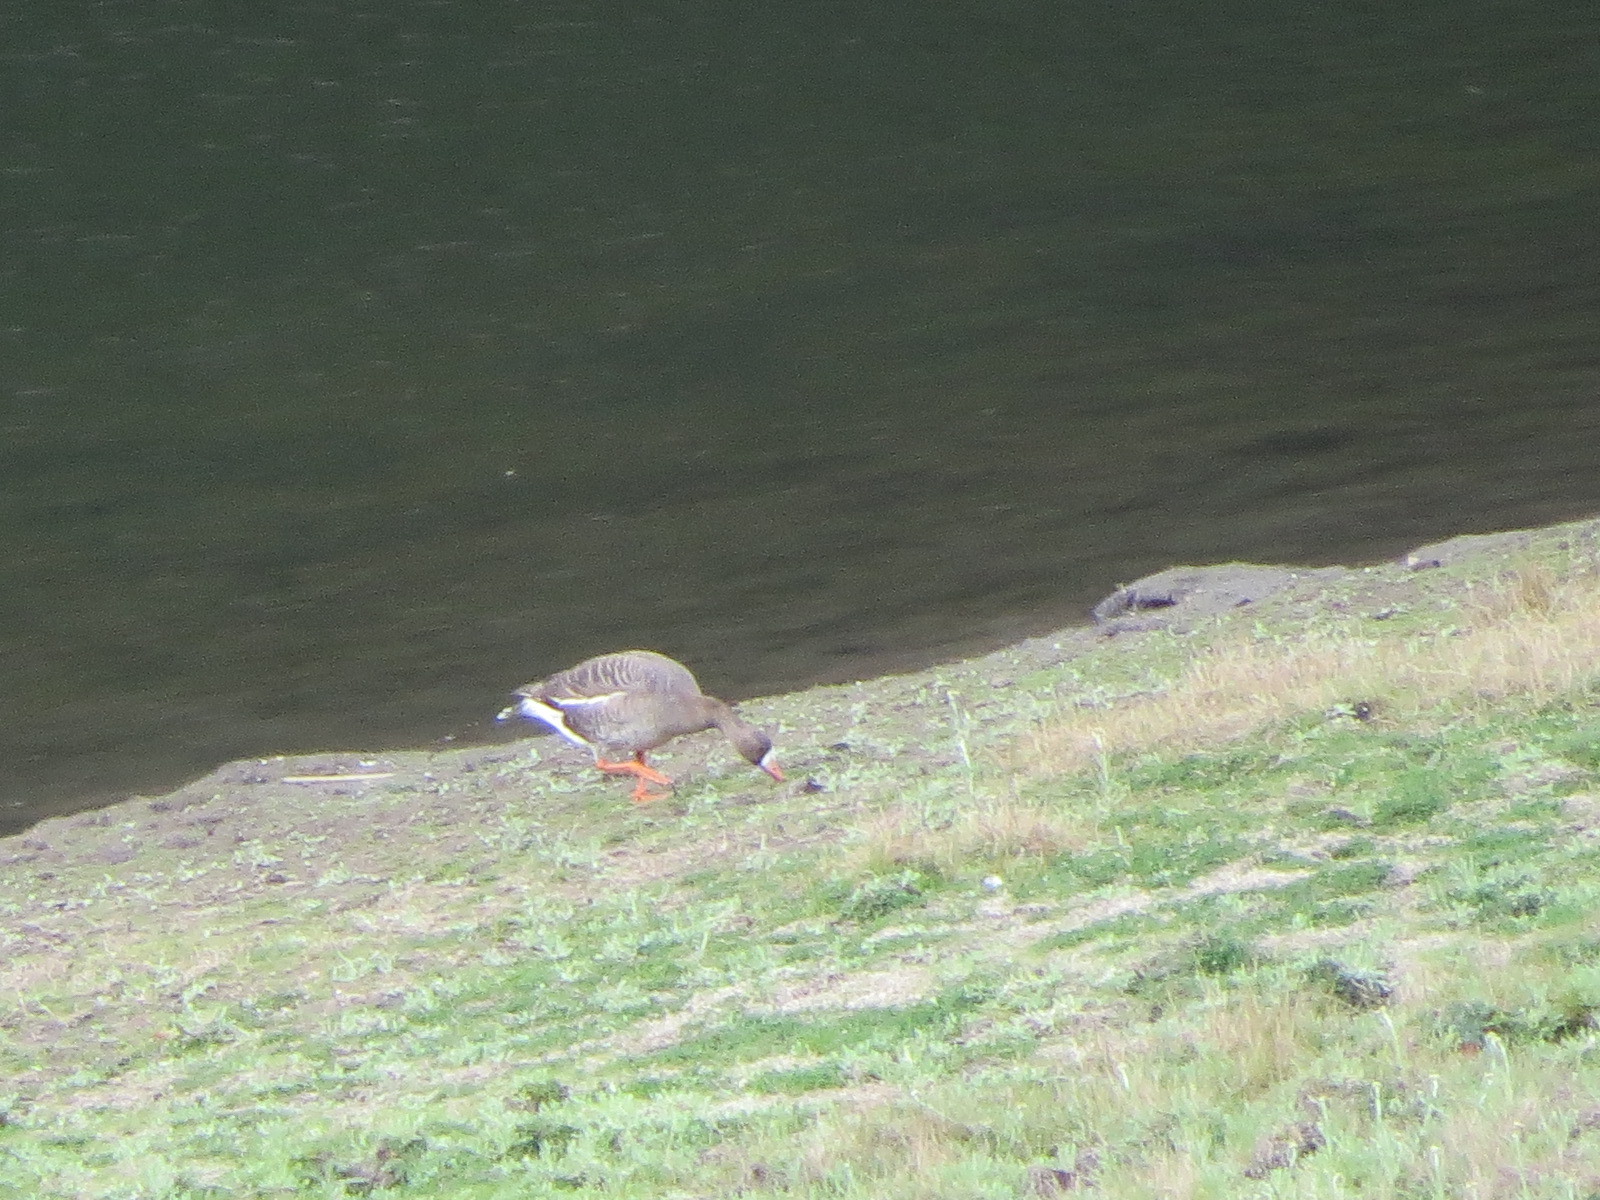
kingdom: Animalia
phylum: Chordata
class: Aves
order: Anseriformes
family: Anatidae
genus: Anser
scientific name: Anser albifrons
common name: Greater white-fronted goose
